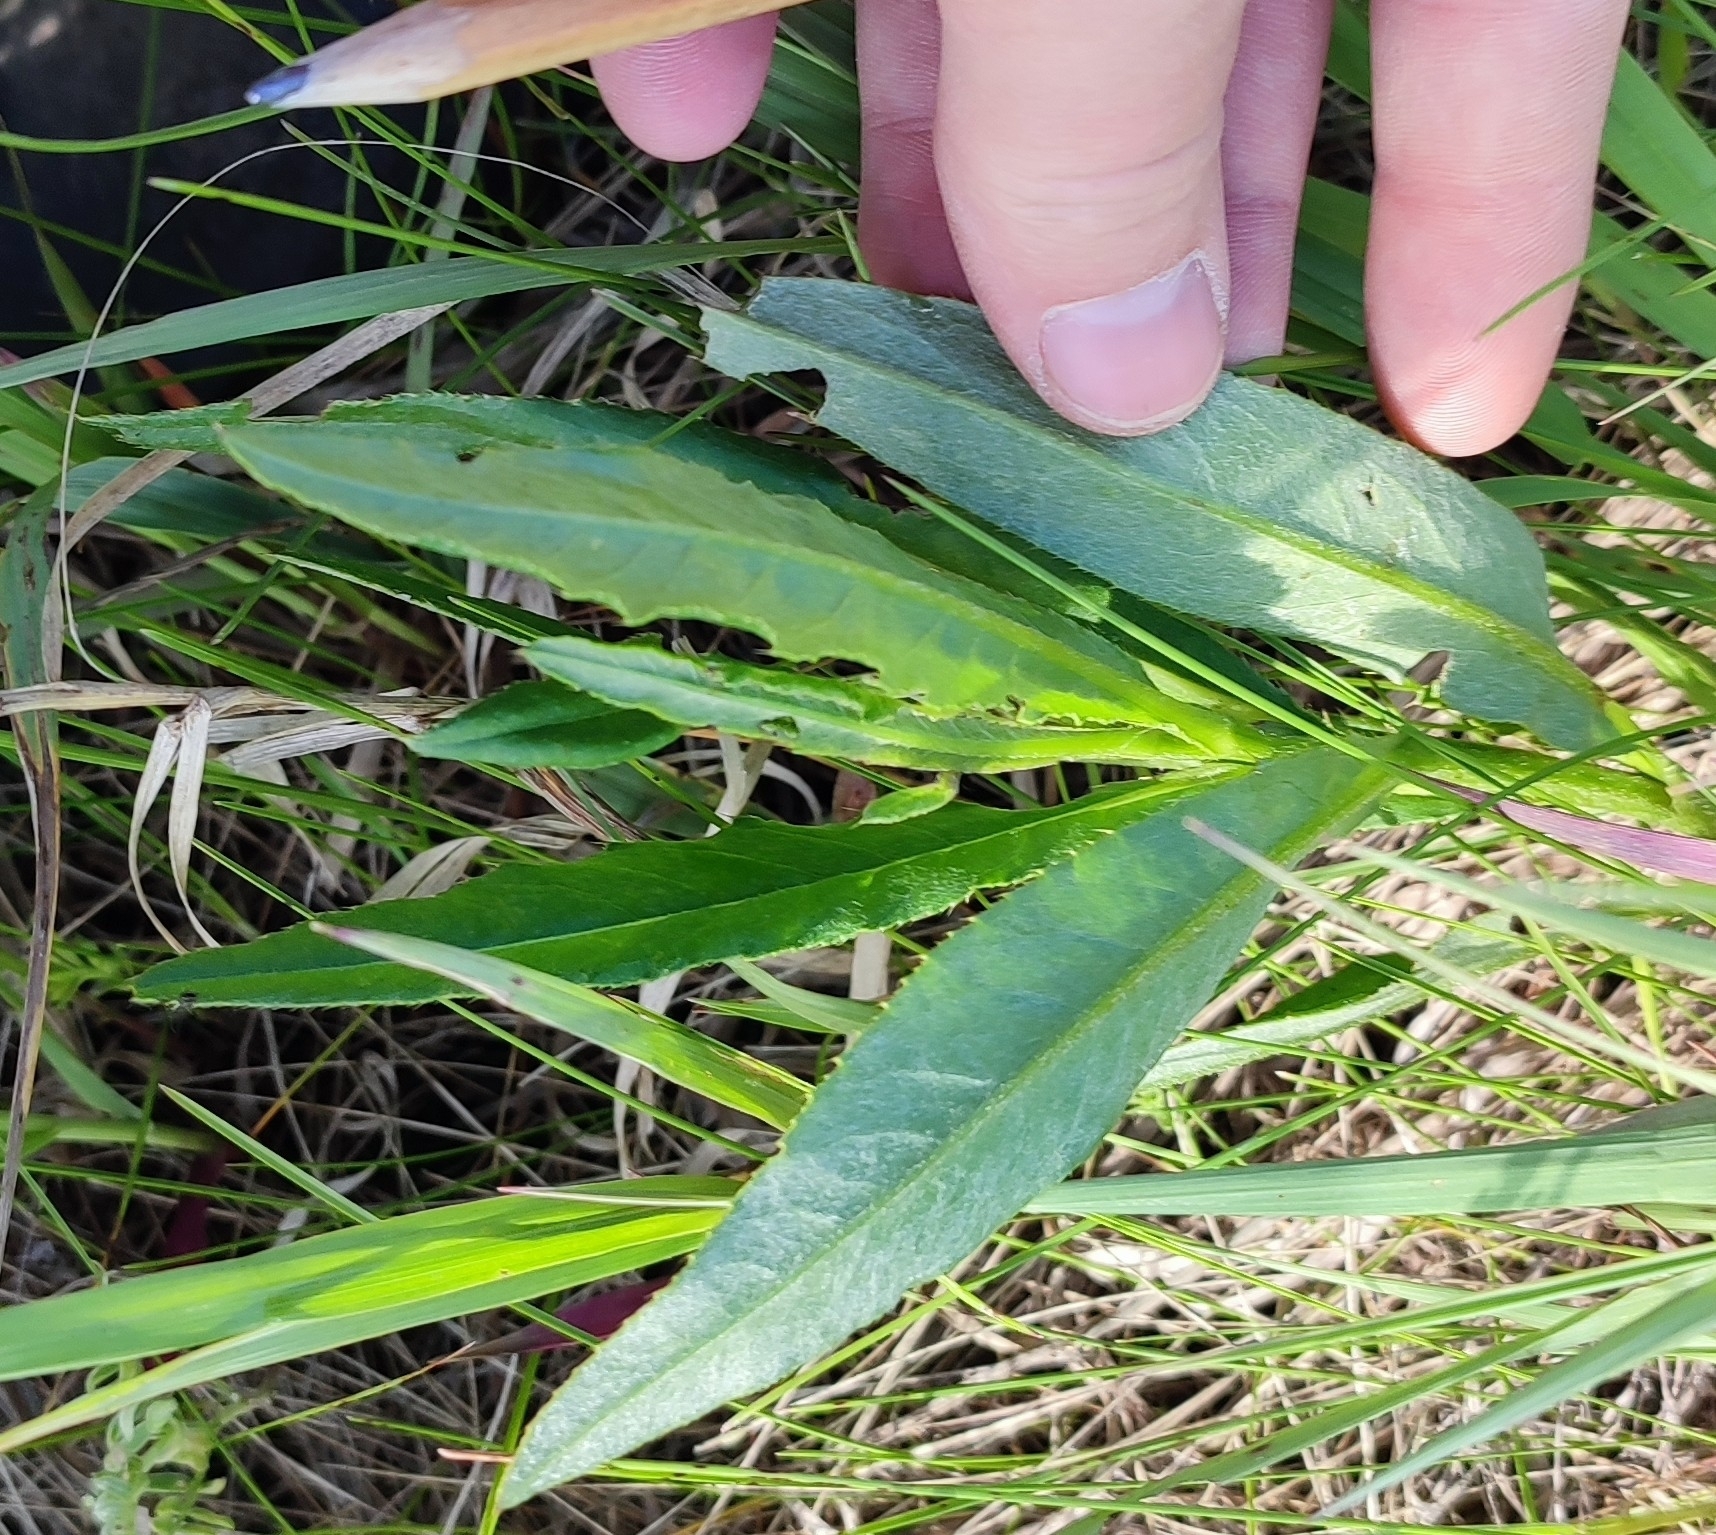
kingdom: Plantae
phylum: Tracheophyta
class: Magnoliopsida
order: Asterales
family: Asteraceae
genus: Cirsium
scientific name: Cirsium arvense
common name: Creeping thistle
